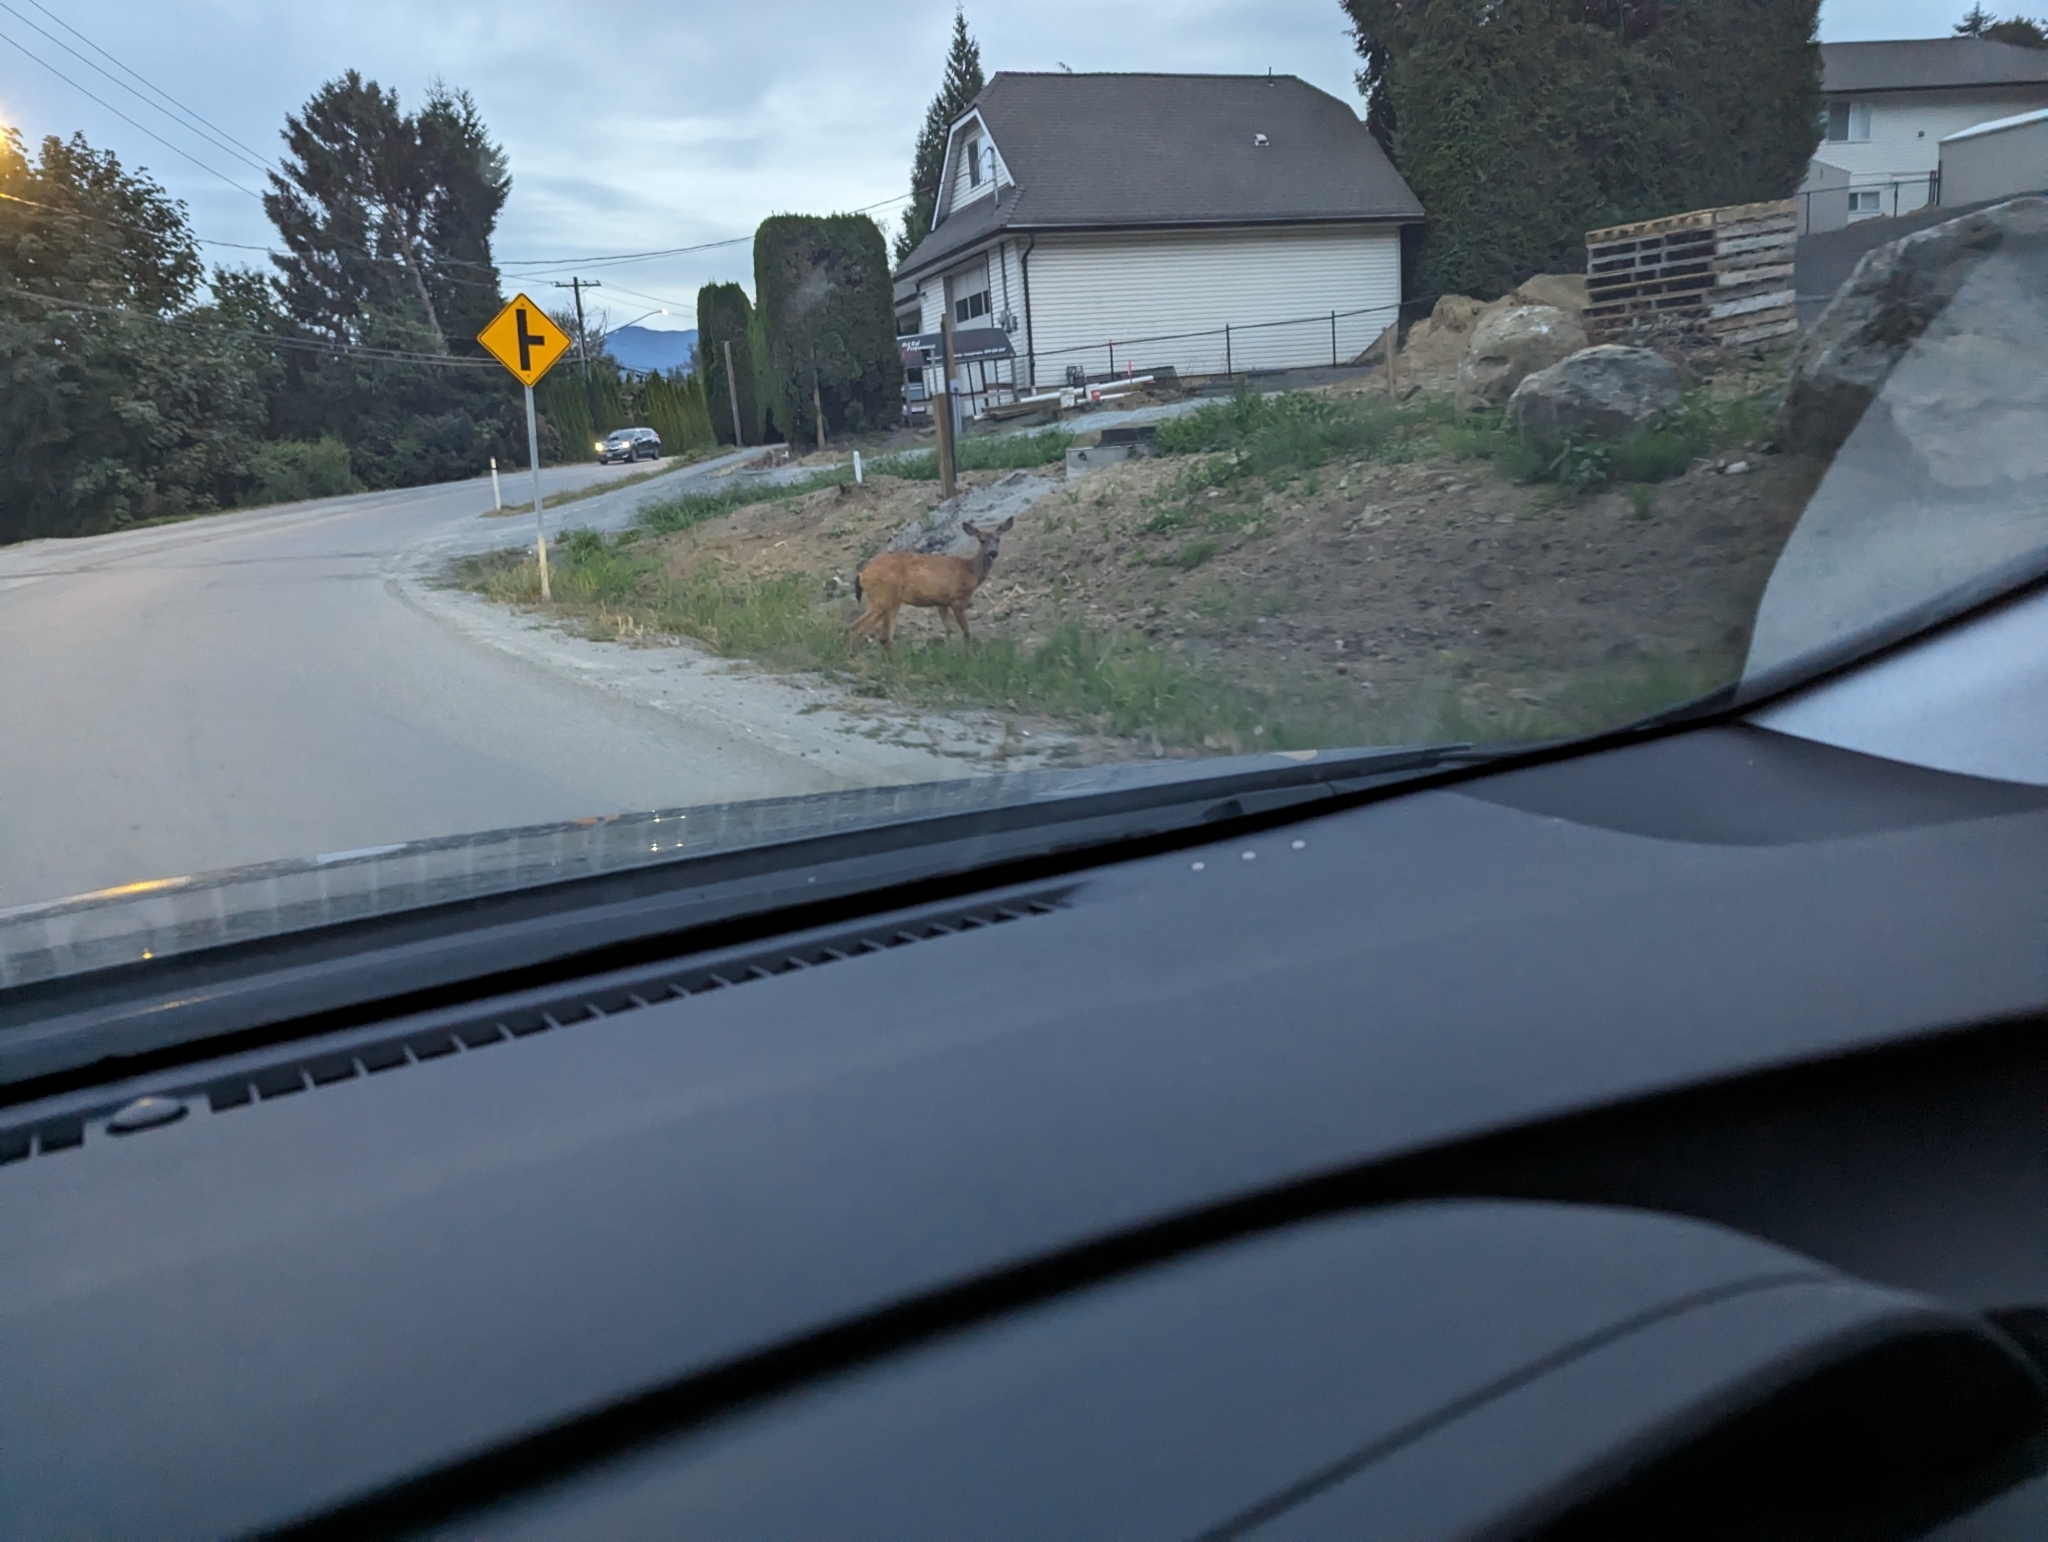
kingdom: Animalia
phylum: Chordata
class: Mammalia
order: Artiodactyla
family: Cervidae
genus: Odocoileus
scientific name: Odocoileus hemionus
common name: Mule deer
